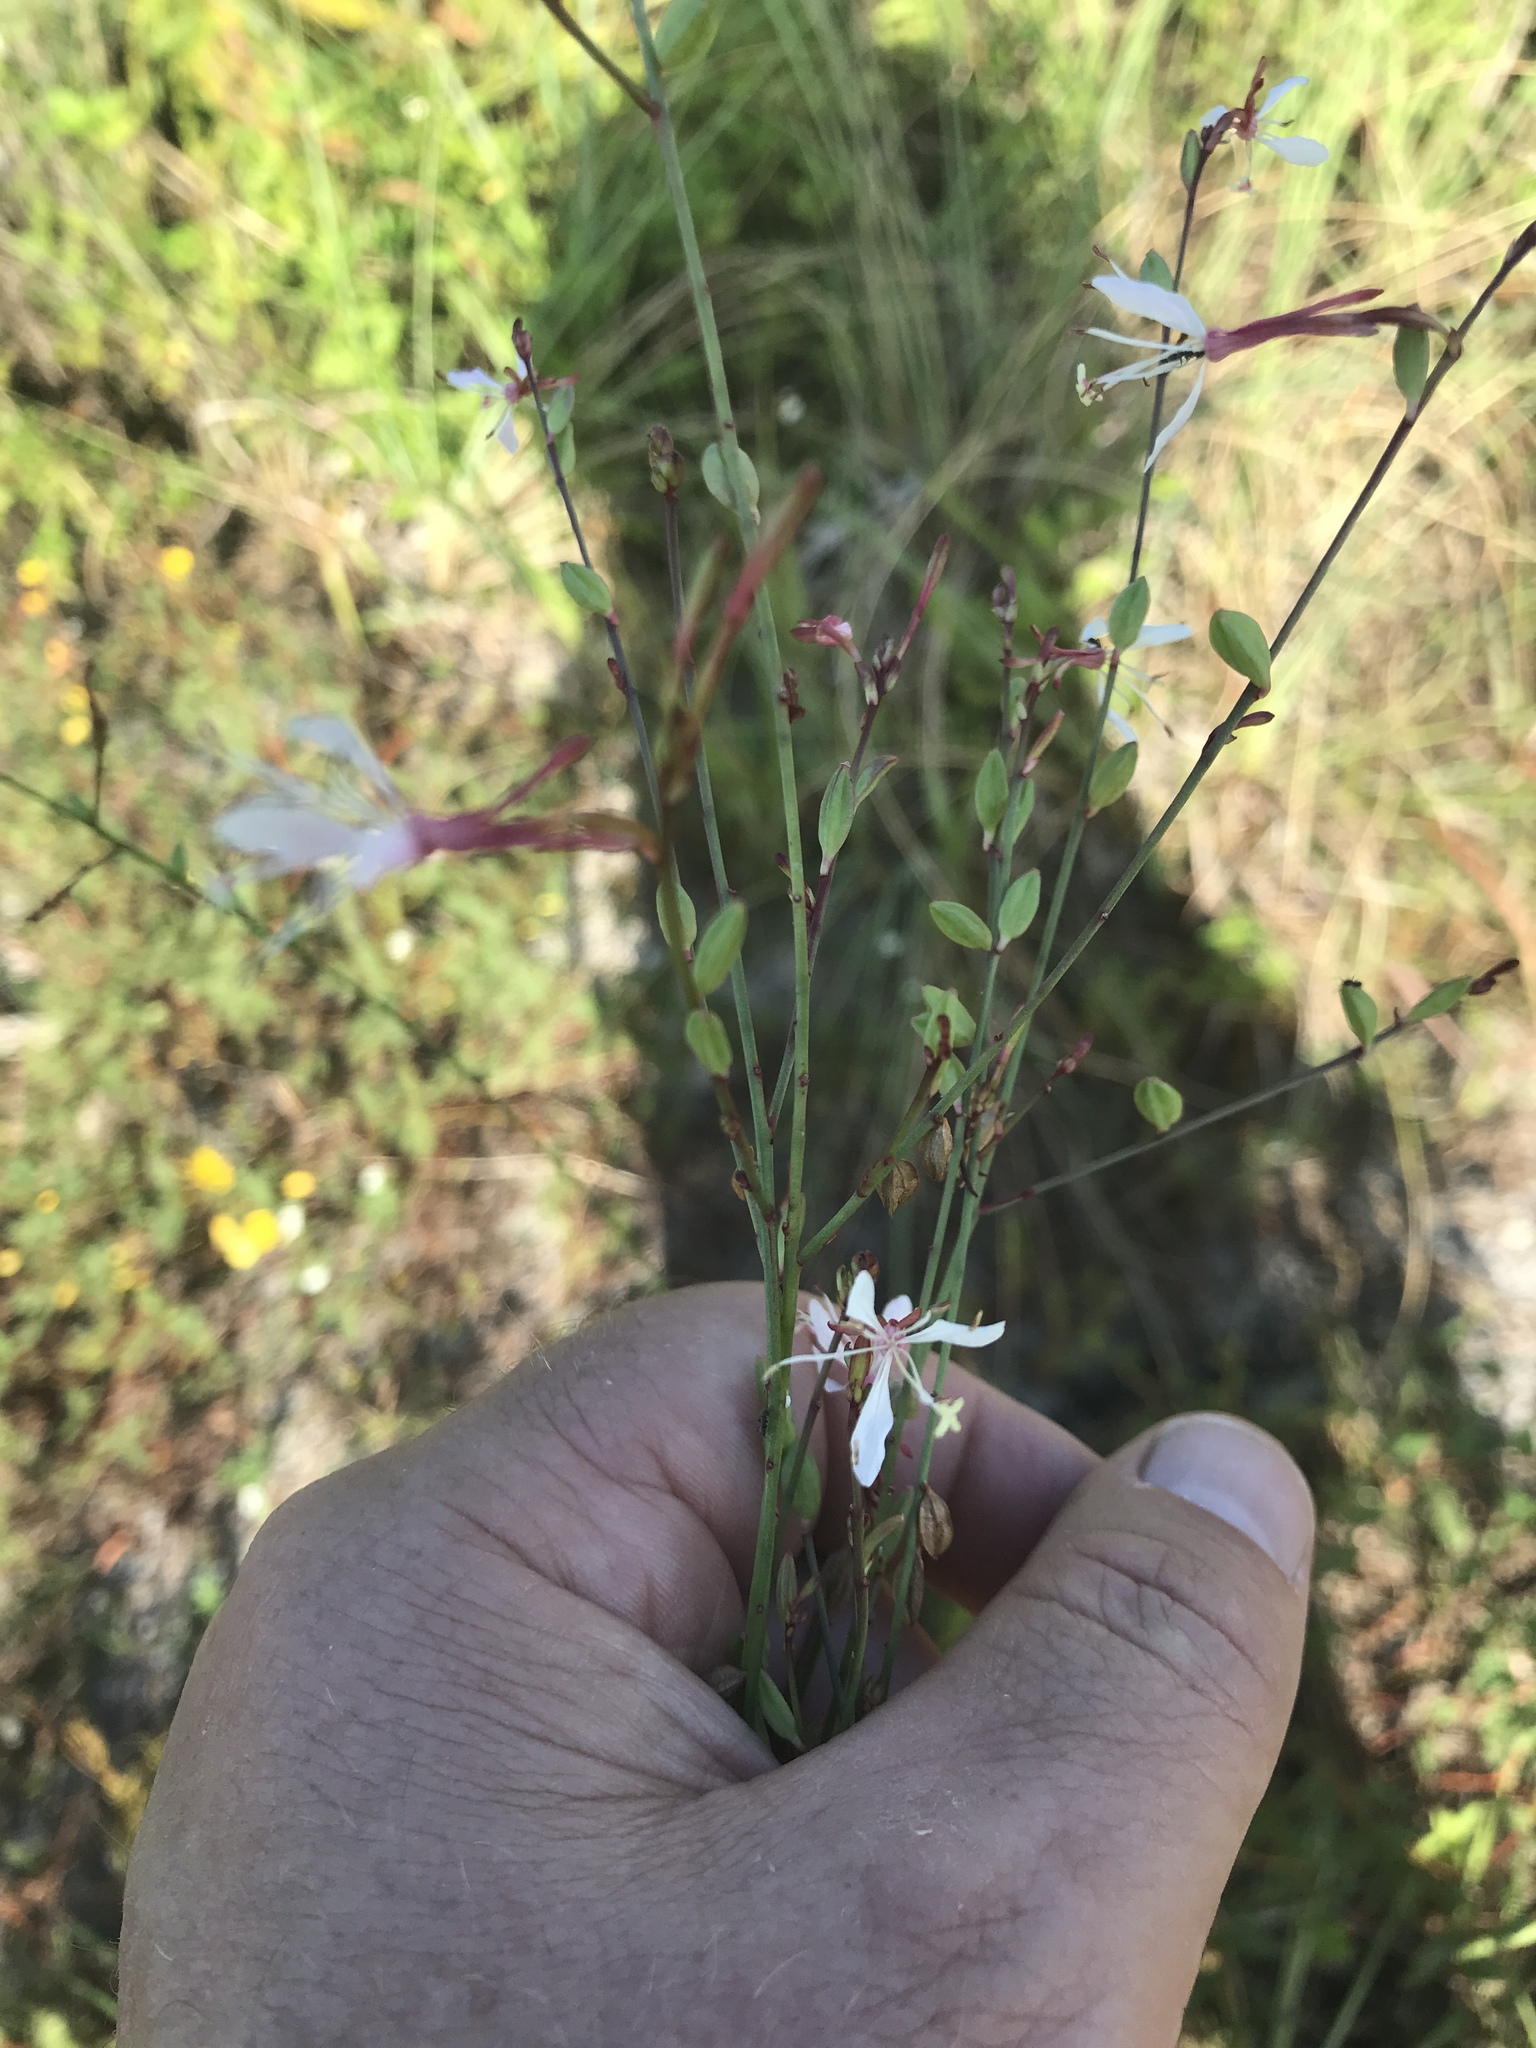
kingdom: Plantae
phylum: Tracheophyta
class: Magnoliopsida
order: Myrtales
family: Onagraceae
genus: Oenothera
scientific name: Oenothera lindheimeri
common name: Lindheimer's beeblossom
